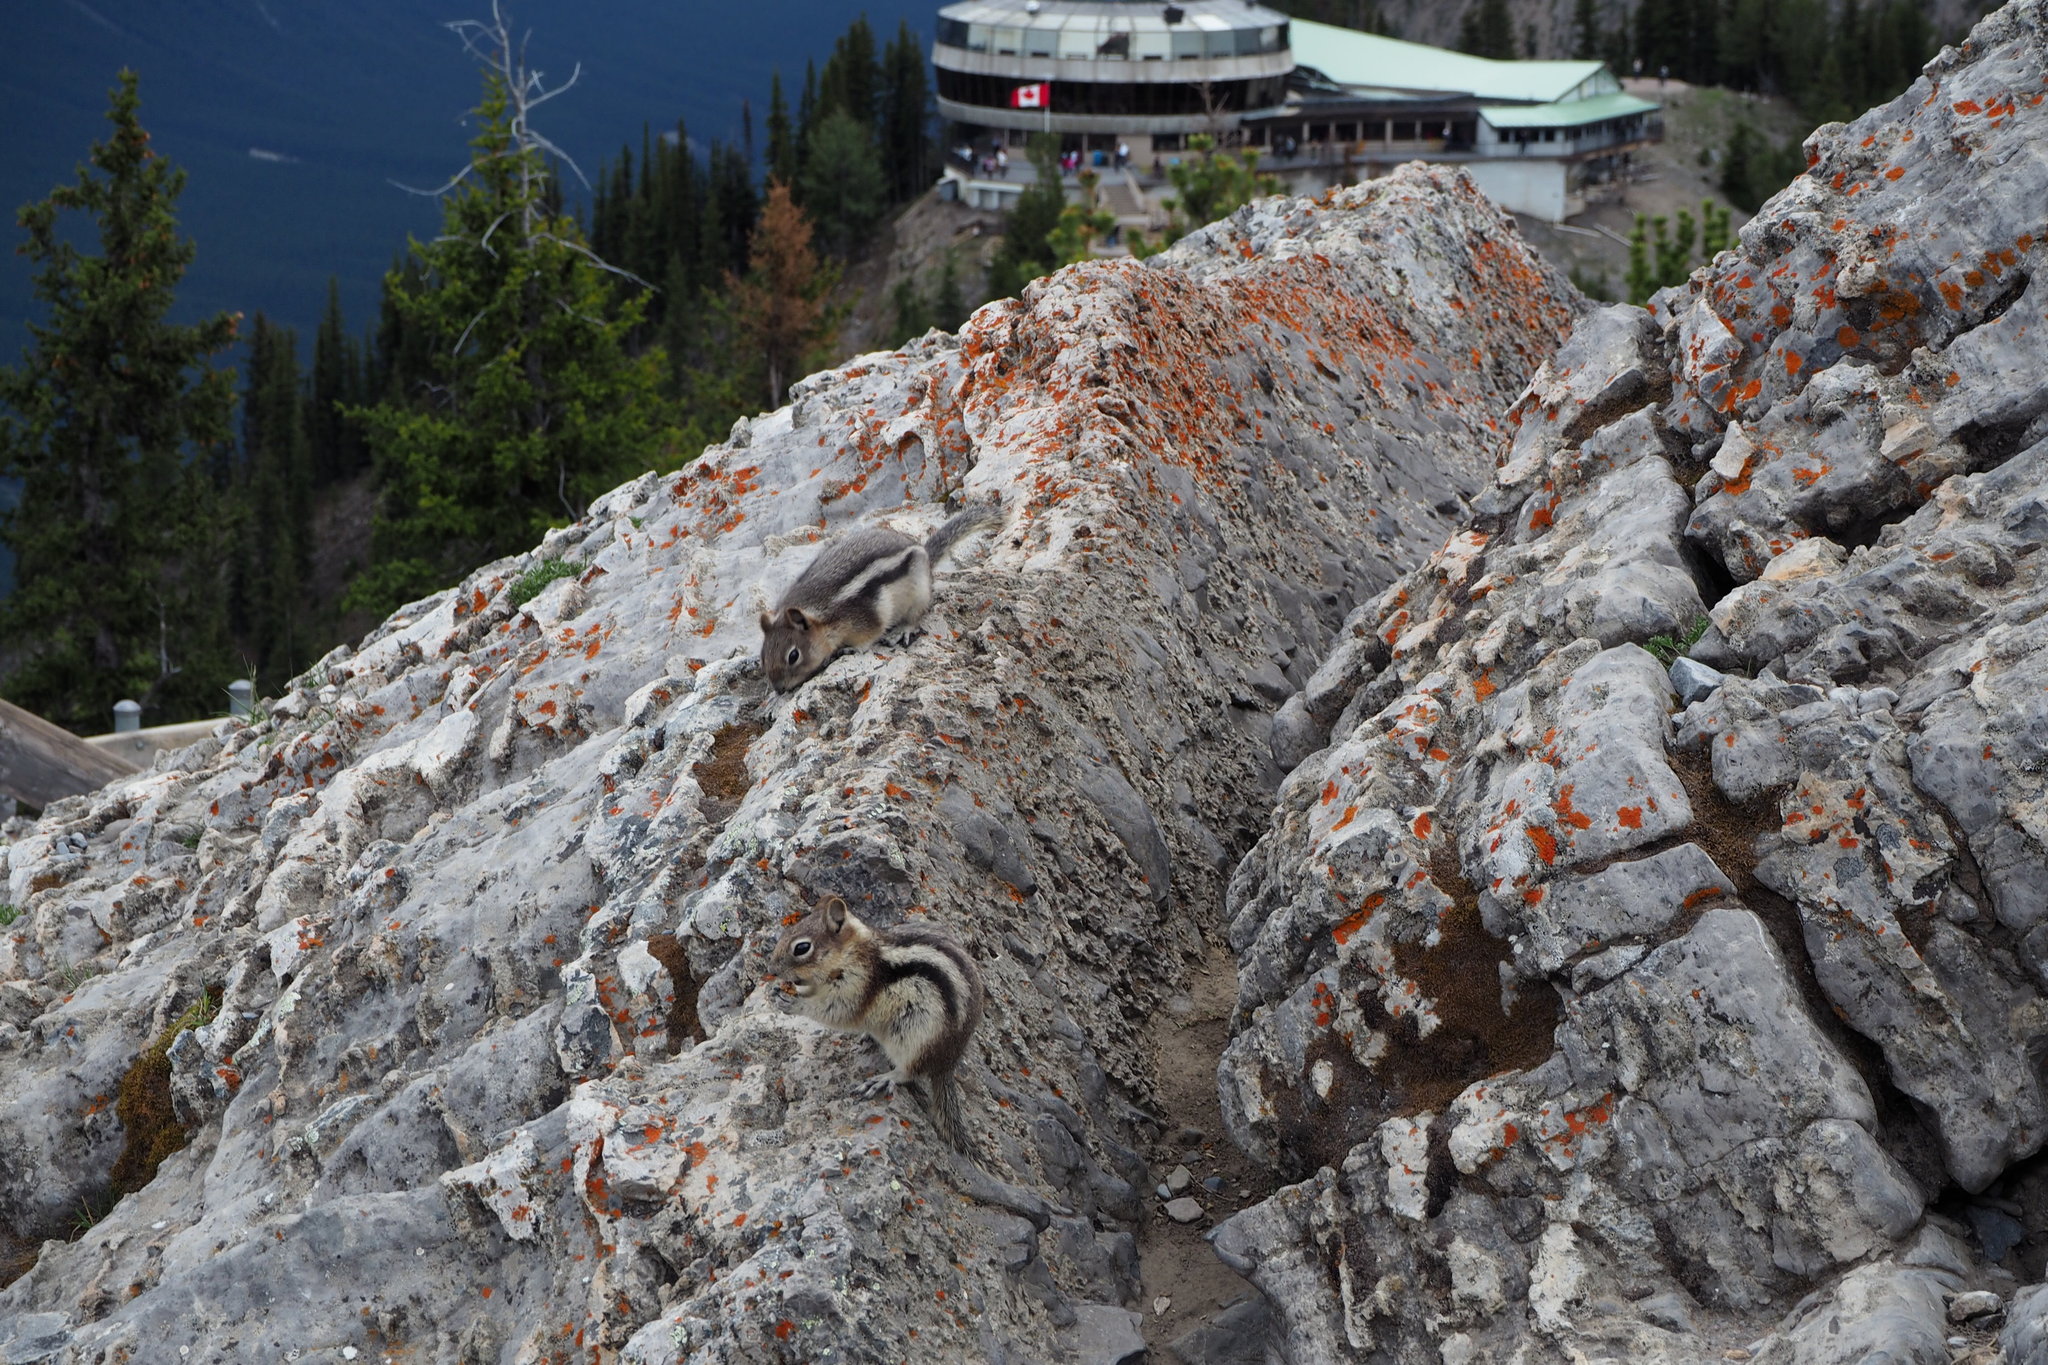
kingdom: Animalia
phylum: Chordata
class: Mammalia
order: Rodentia
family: Sciuridae
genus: Callospermophilus
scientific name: Callospermophilus lateralis
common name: Golden-mantled ground squirrel
